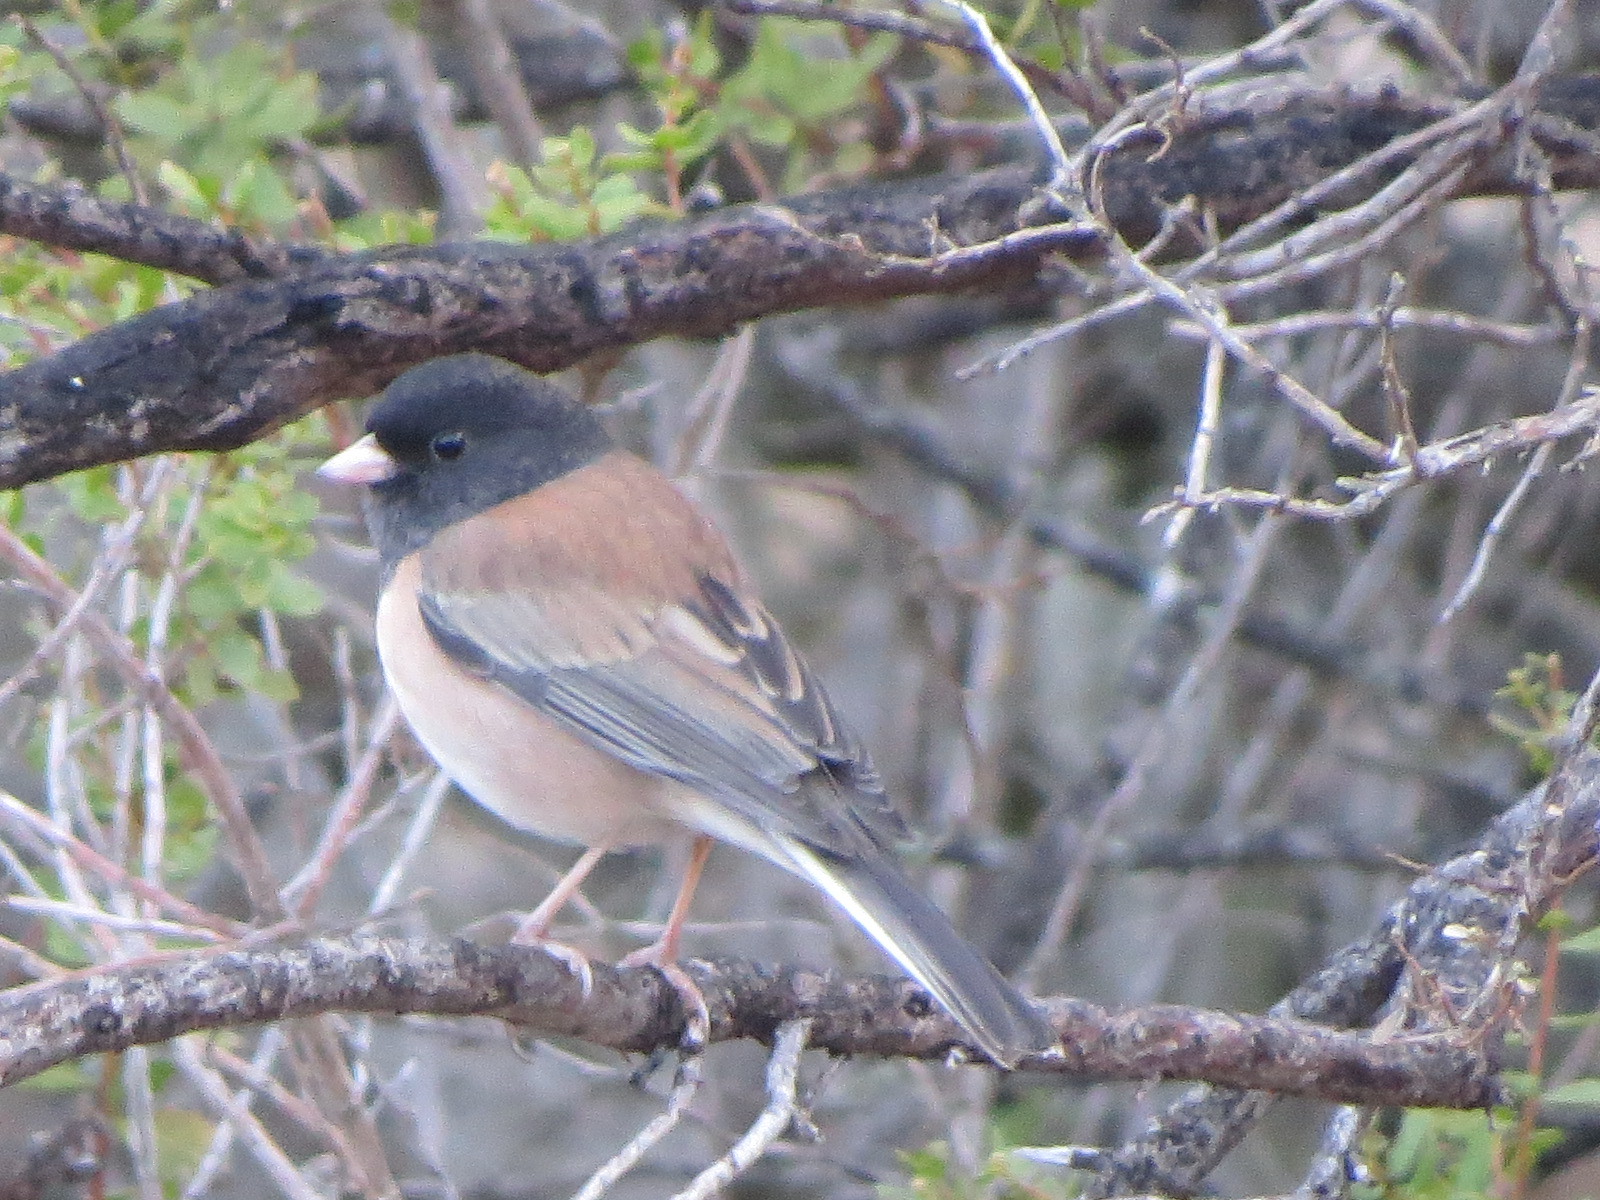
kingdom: Animalia
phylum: Chordata
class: Aves
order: Passeriformes
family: Passerellidae
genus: Junco
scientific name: Junco hyemalis
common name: Dark-eyed junco
